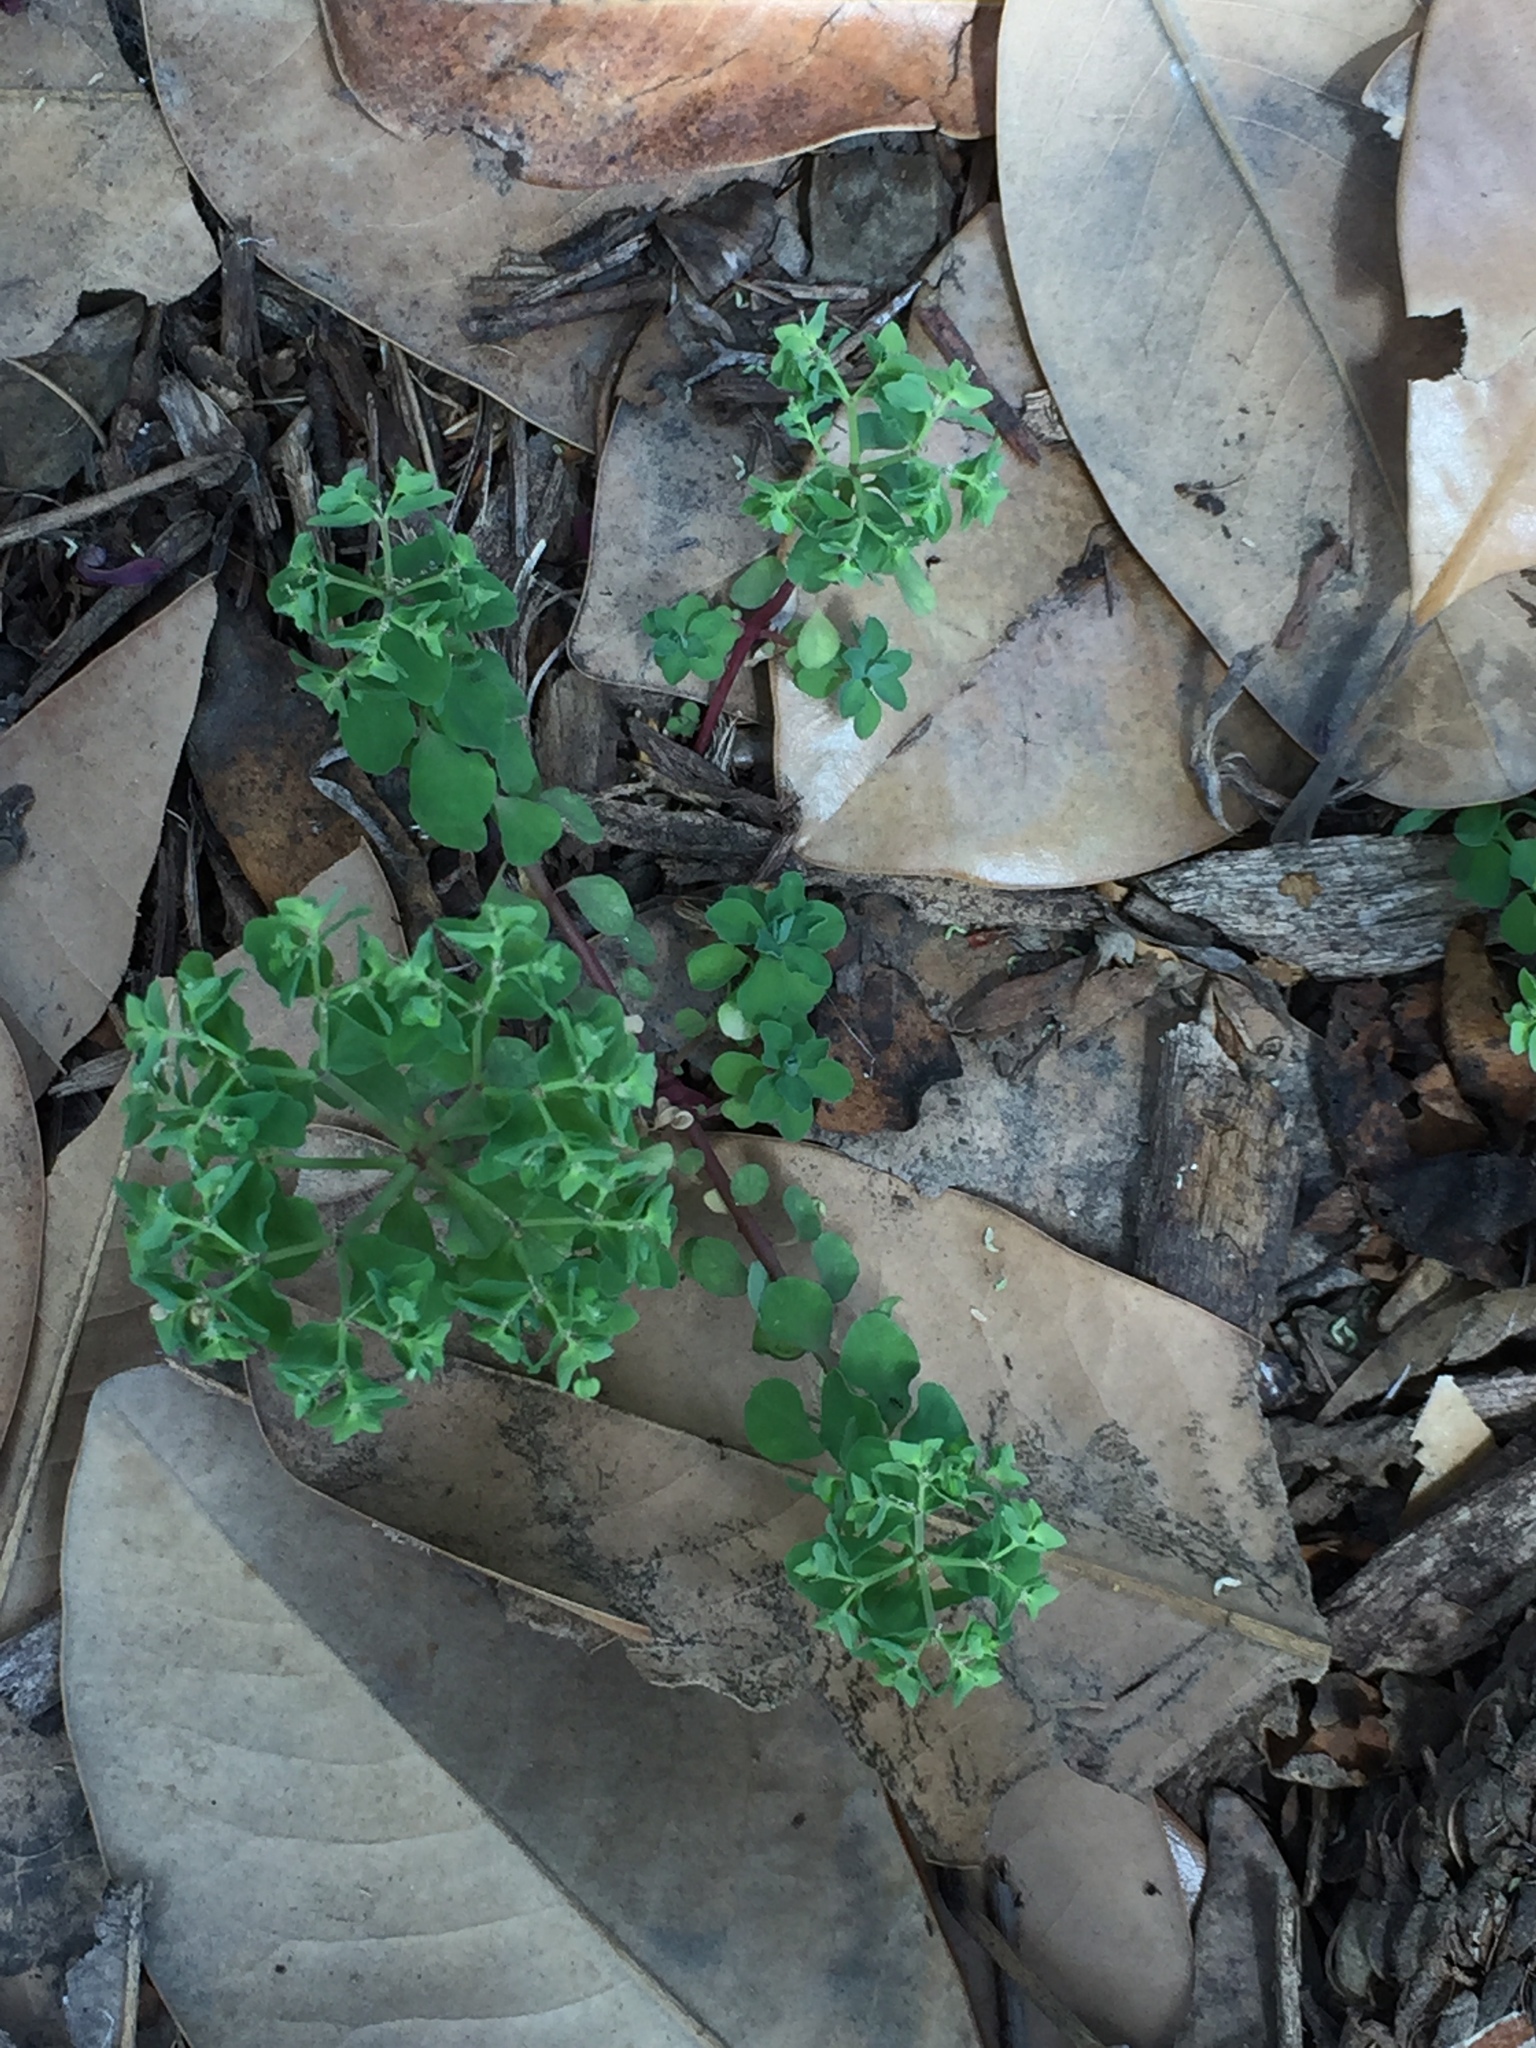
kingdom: Plantae
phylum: Tracheophyta
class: Magnoliopsida
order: Malpighiales
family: Euphorbiaceae
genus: Euphorbia
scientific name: Euphorbia peplus
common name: Petty spurge
